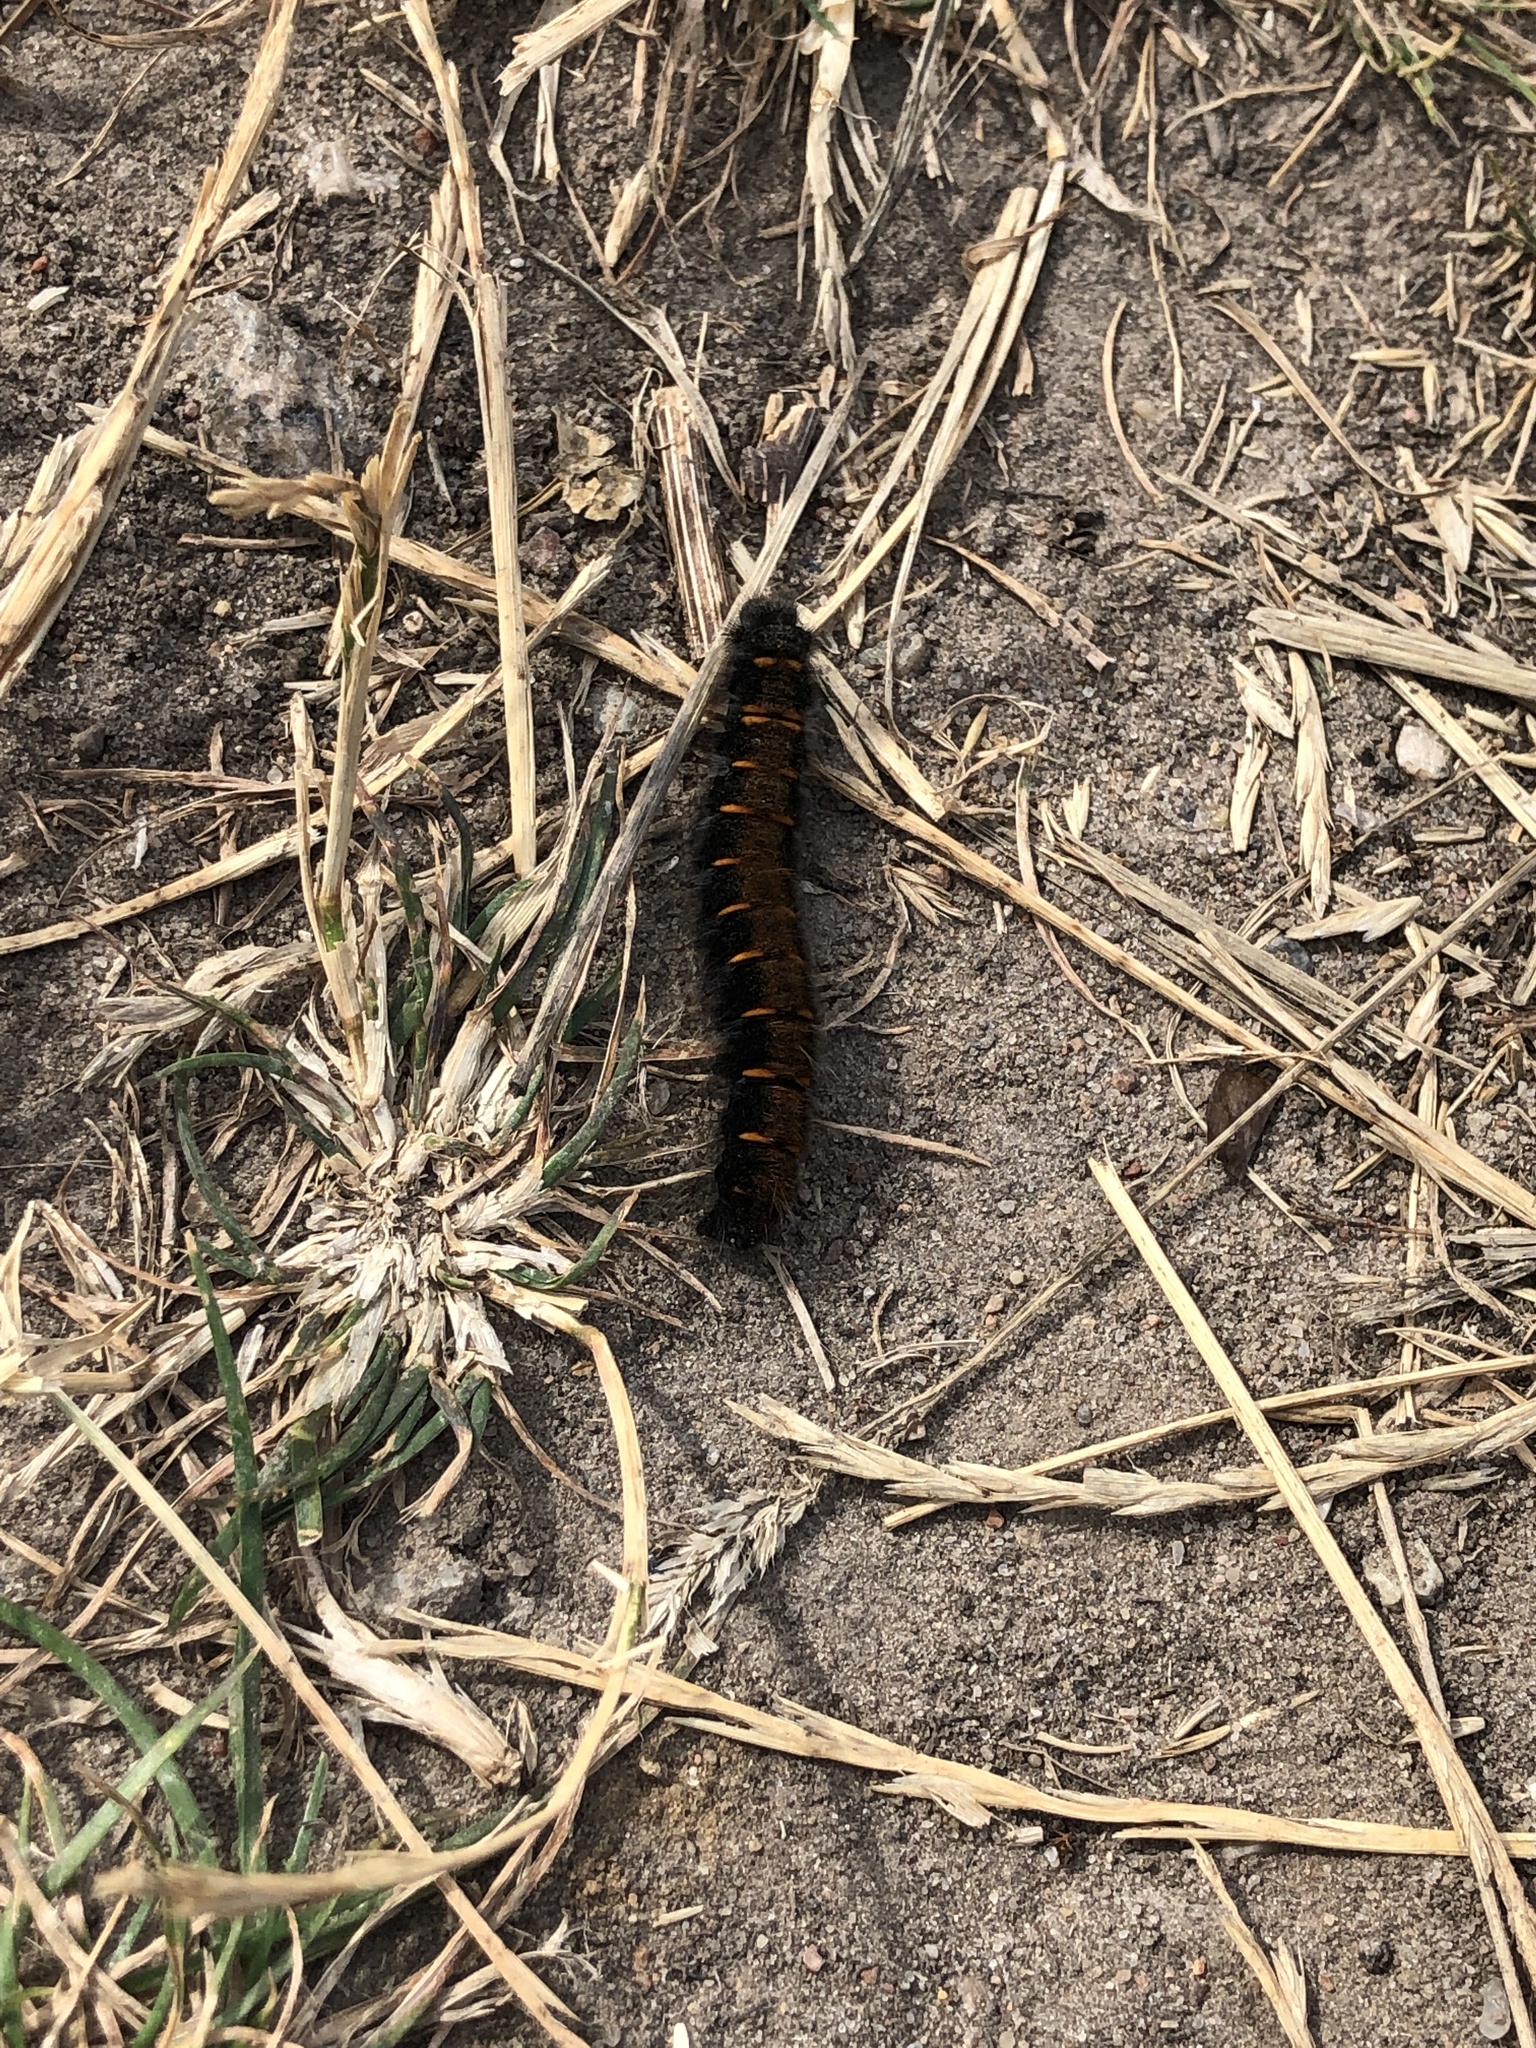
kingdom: Animalia
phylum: Arthropoda
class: Insecta
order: Lepidoptera
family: Lasiocampidae
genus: Macrothylacia
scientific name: Macrothylacia rubi
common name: Fox moth
